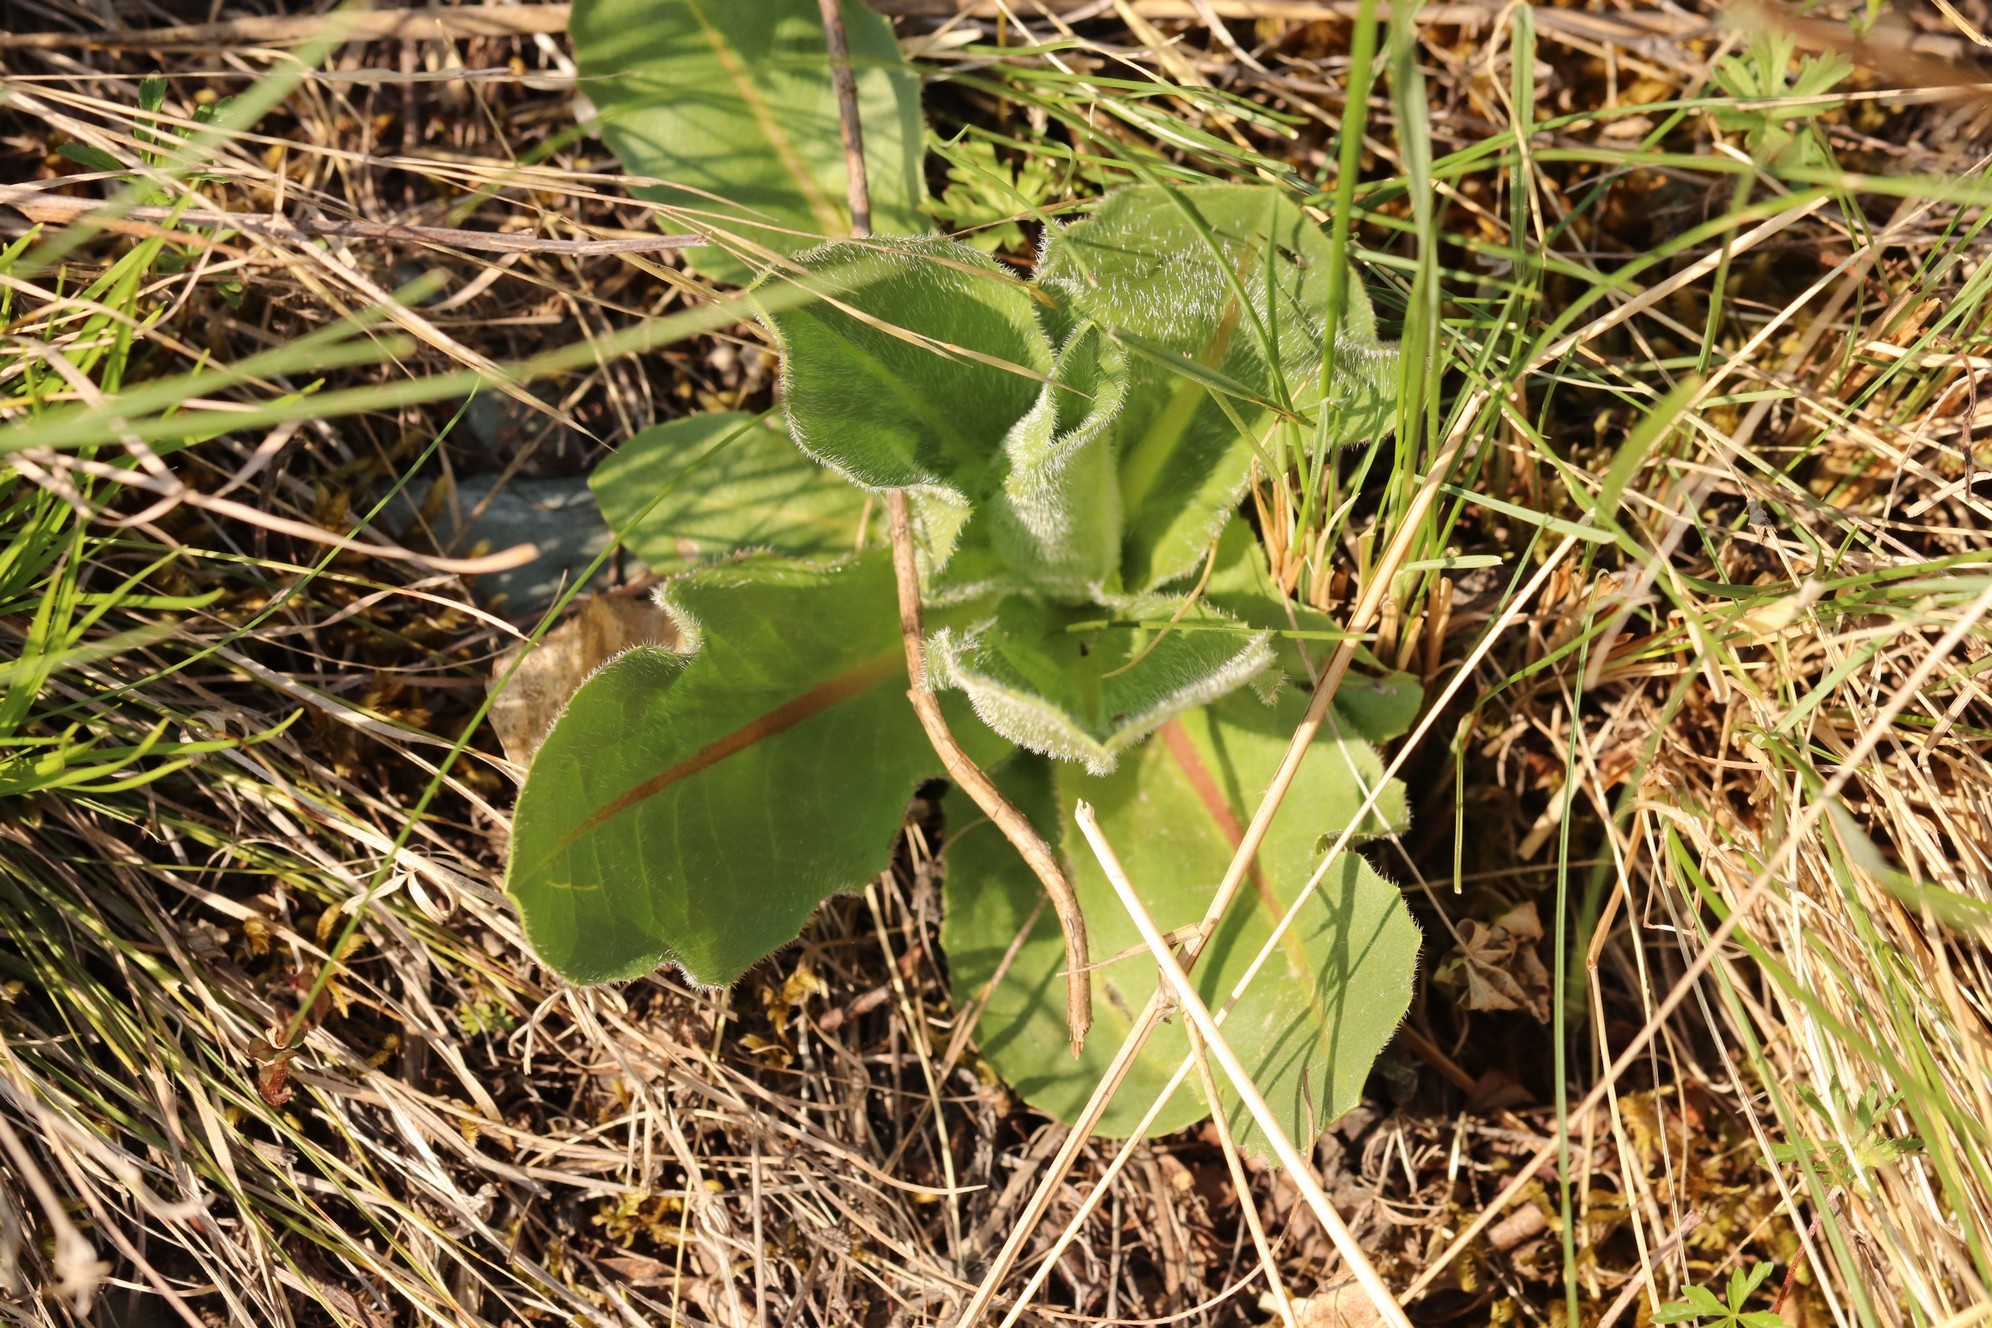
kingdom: Plantae
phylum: Tracheophyta
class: Magnoliopsida
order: Asterales
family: Asteraceae
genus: Trommsdorffia
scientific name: Trommsdorffia maculata
